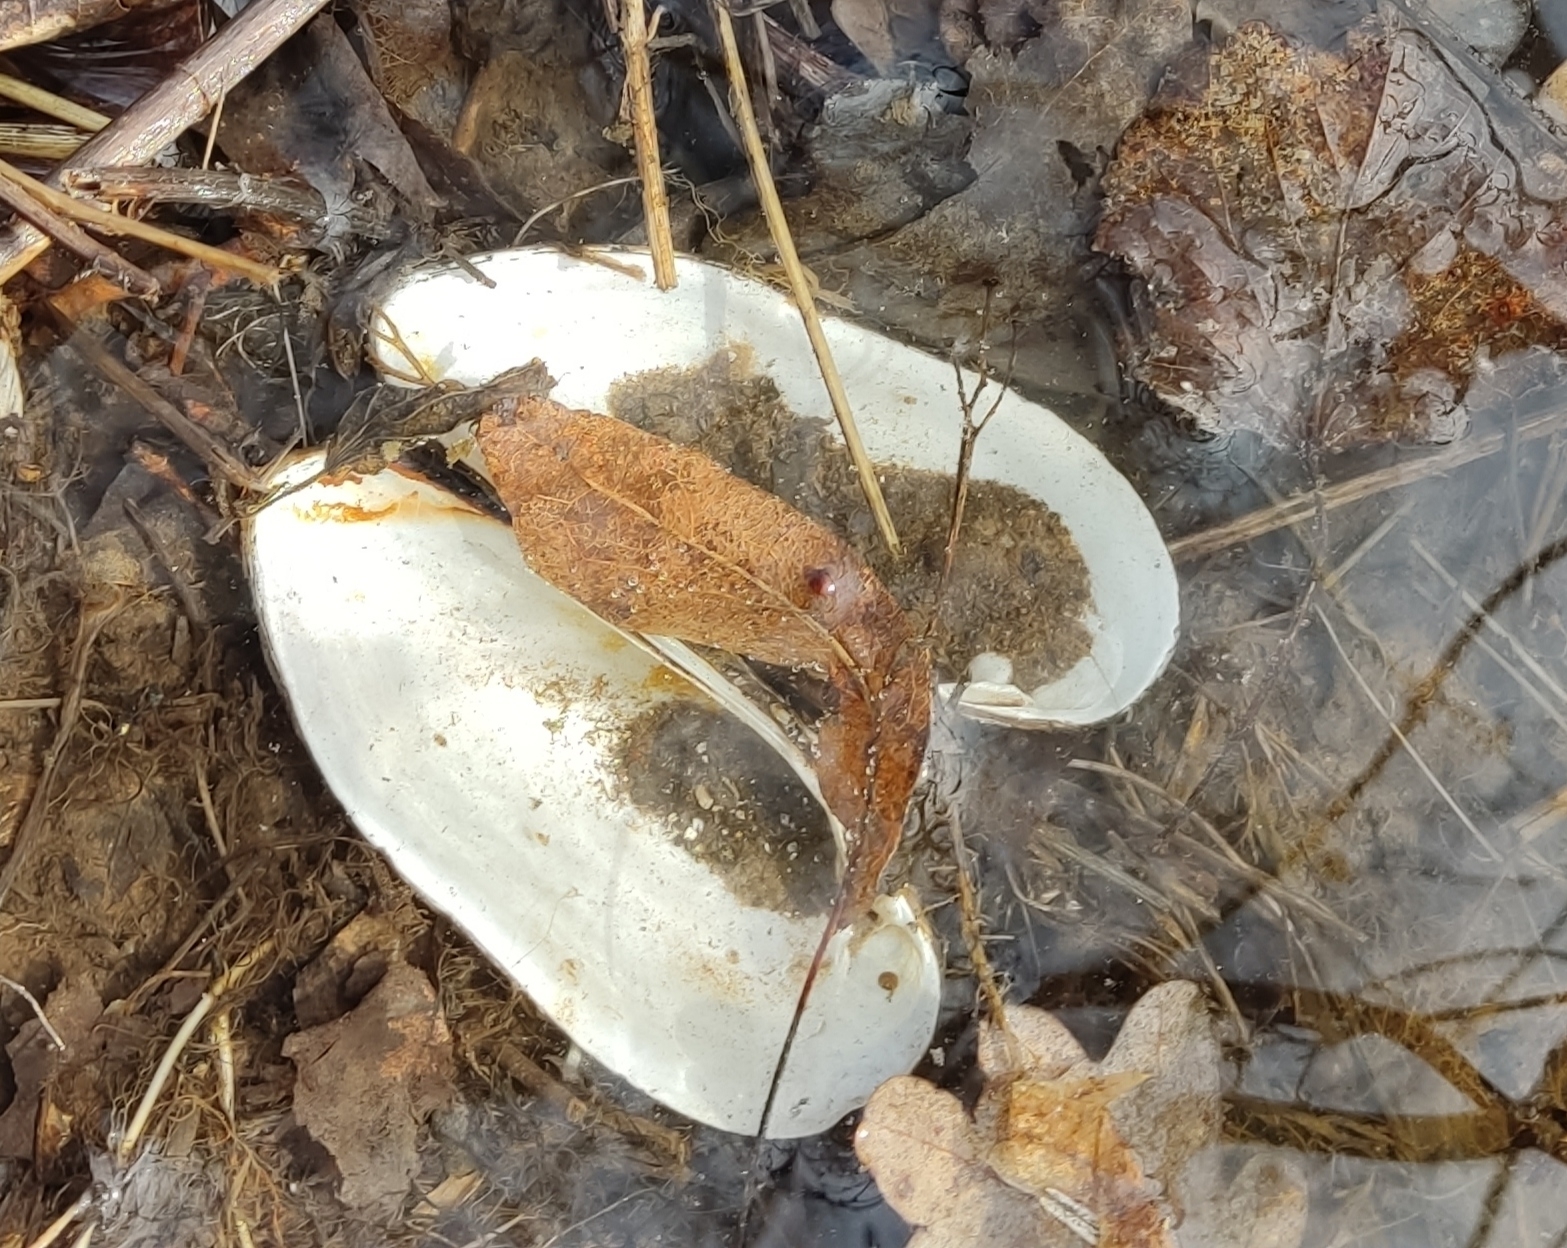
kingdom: Animalia
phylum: Mollusca
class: Bivalvia
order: Unionida
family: Unionidae
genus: Unio
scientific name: Unio pictorum
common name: Painter's mussel
